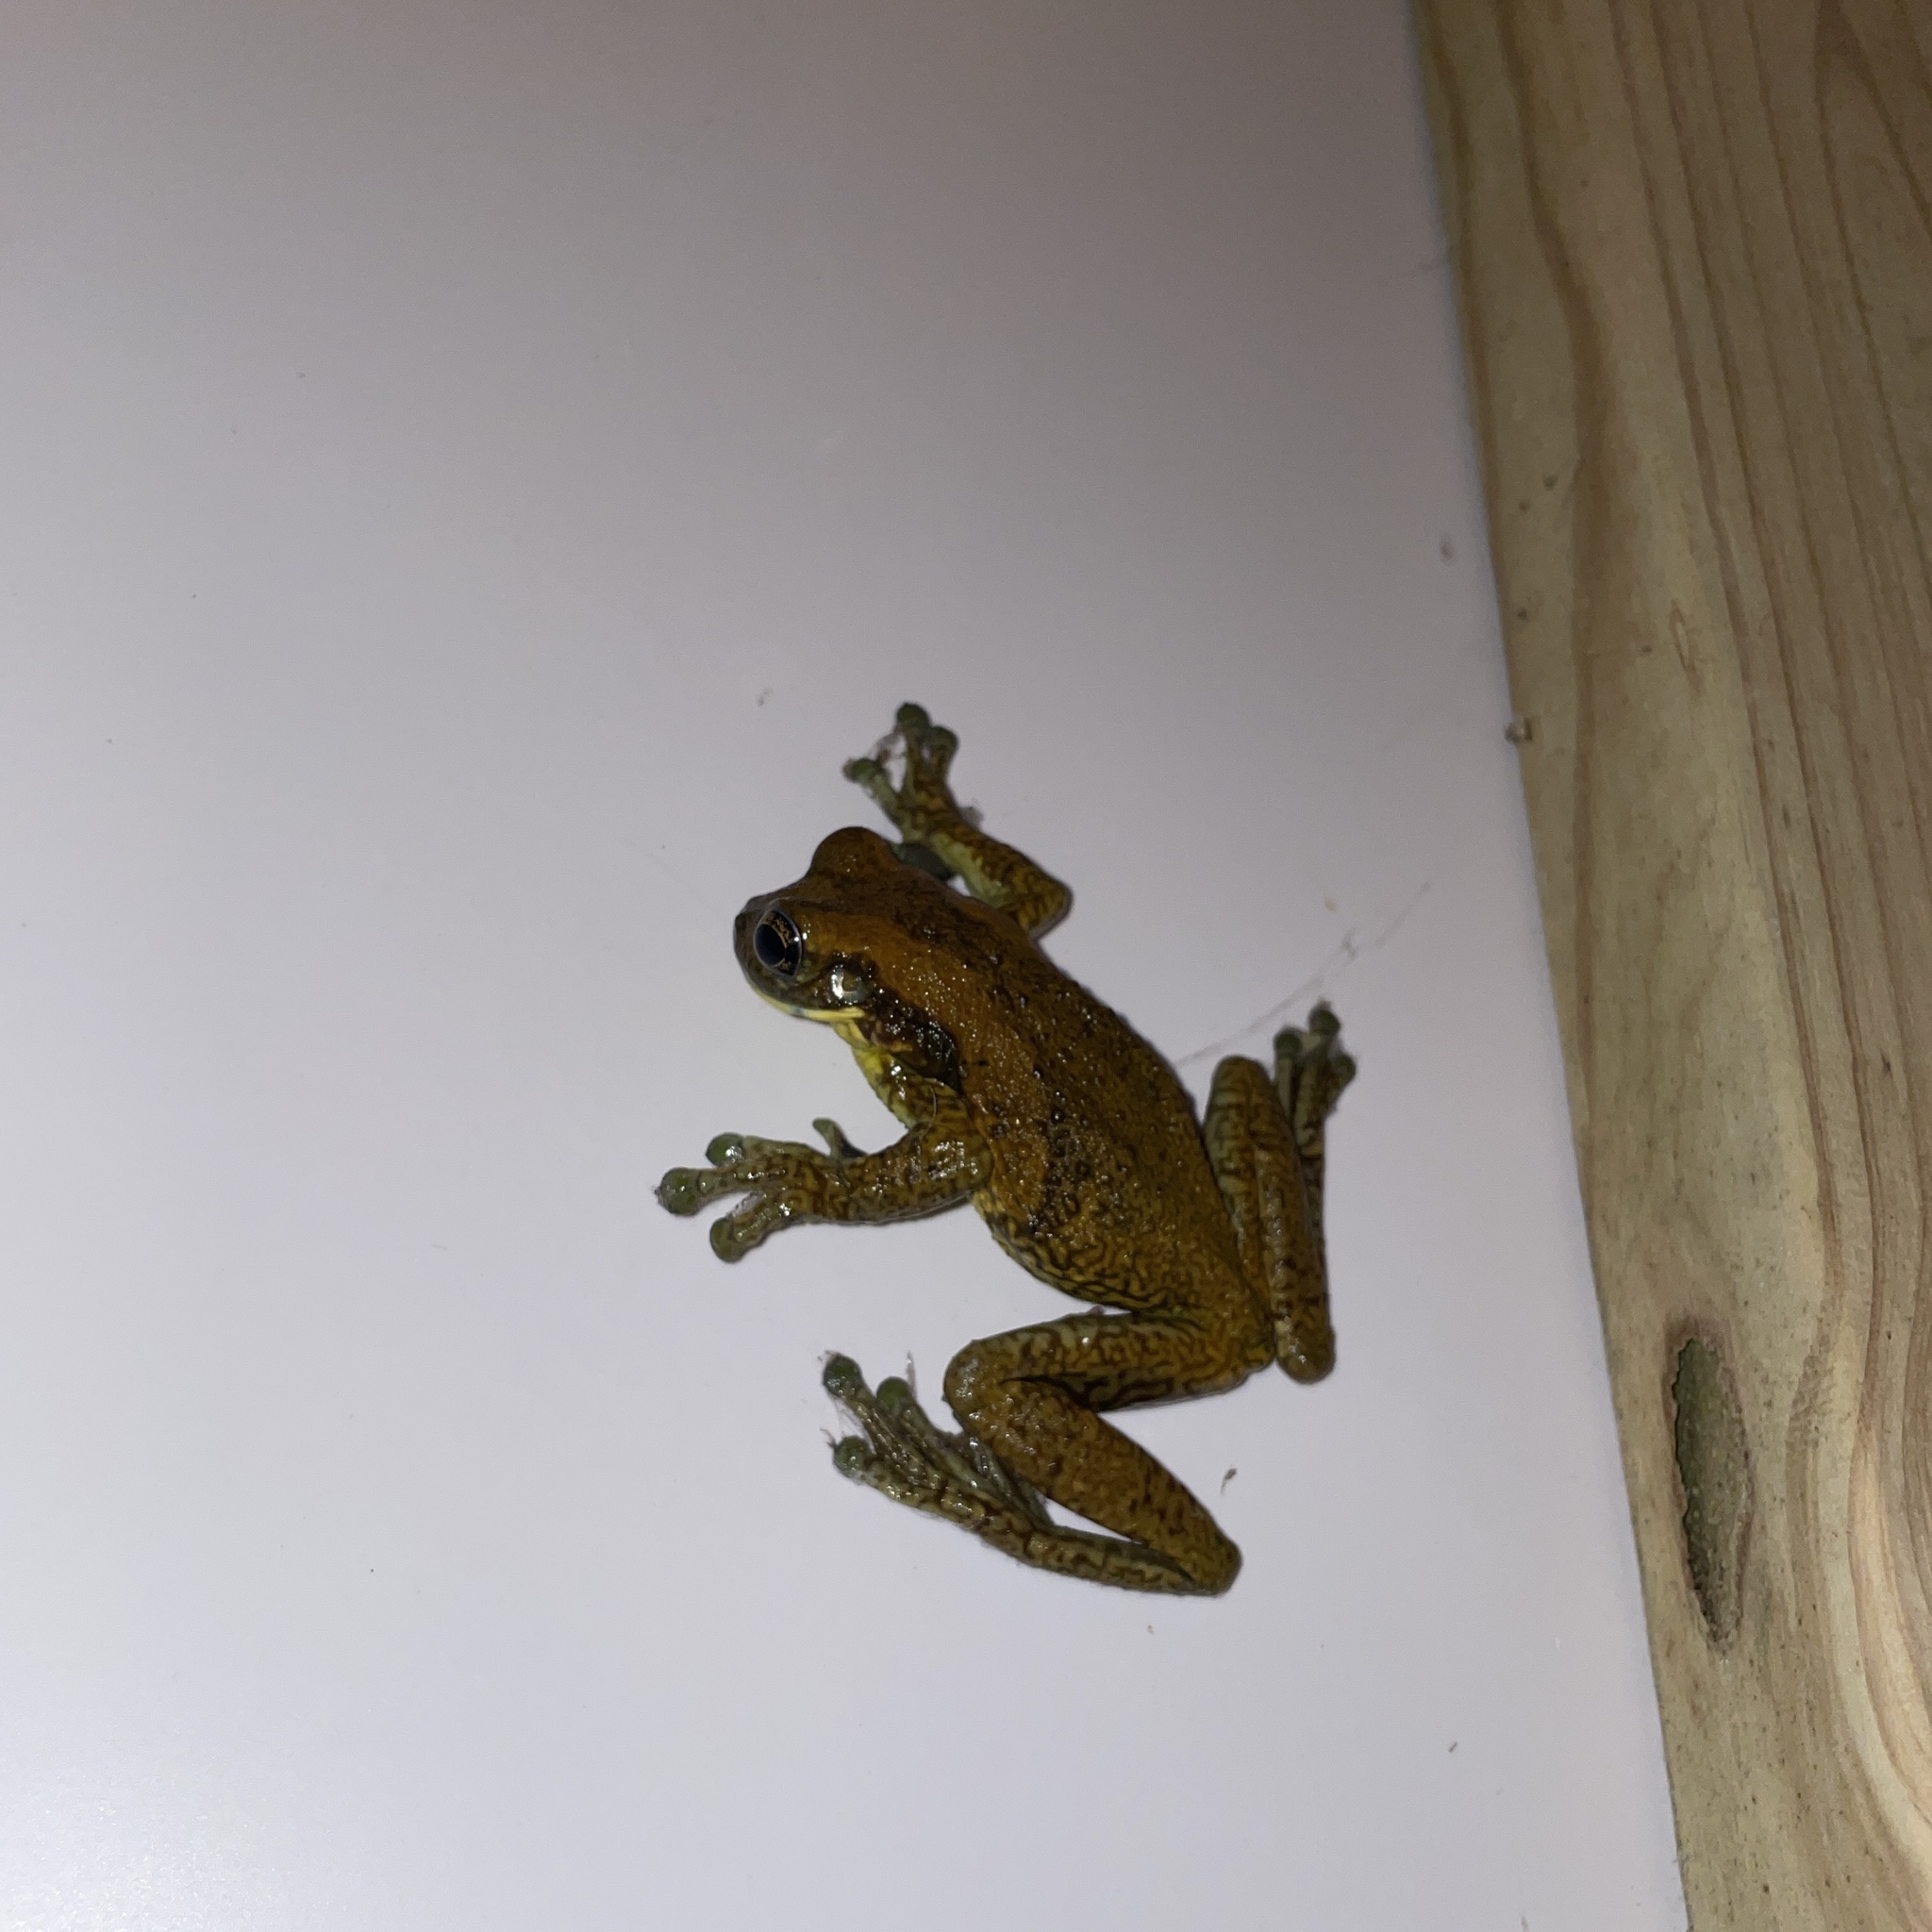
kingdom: Animalia
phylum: Chordata
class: Amphibia
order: Anura
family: Hylidae
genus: Trachycephalus
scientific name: Trachycephalus typhonius
